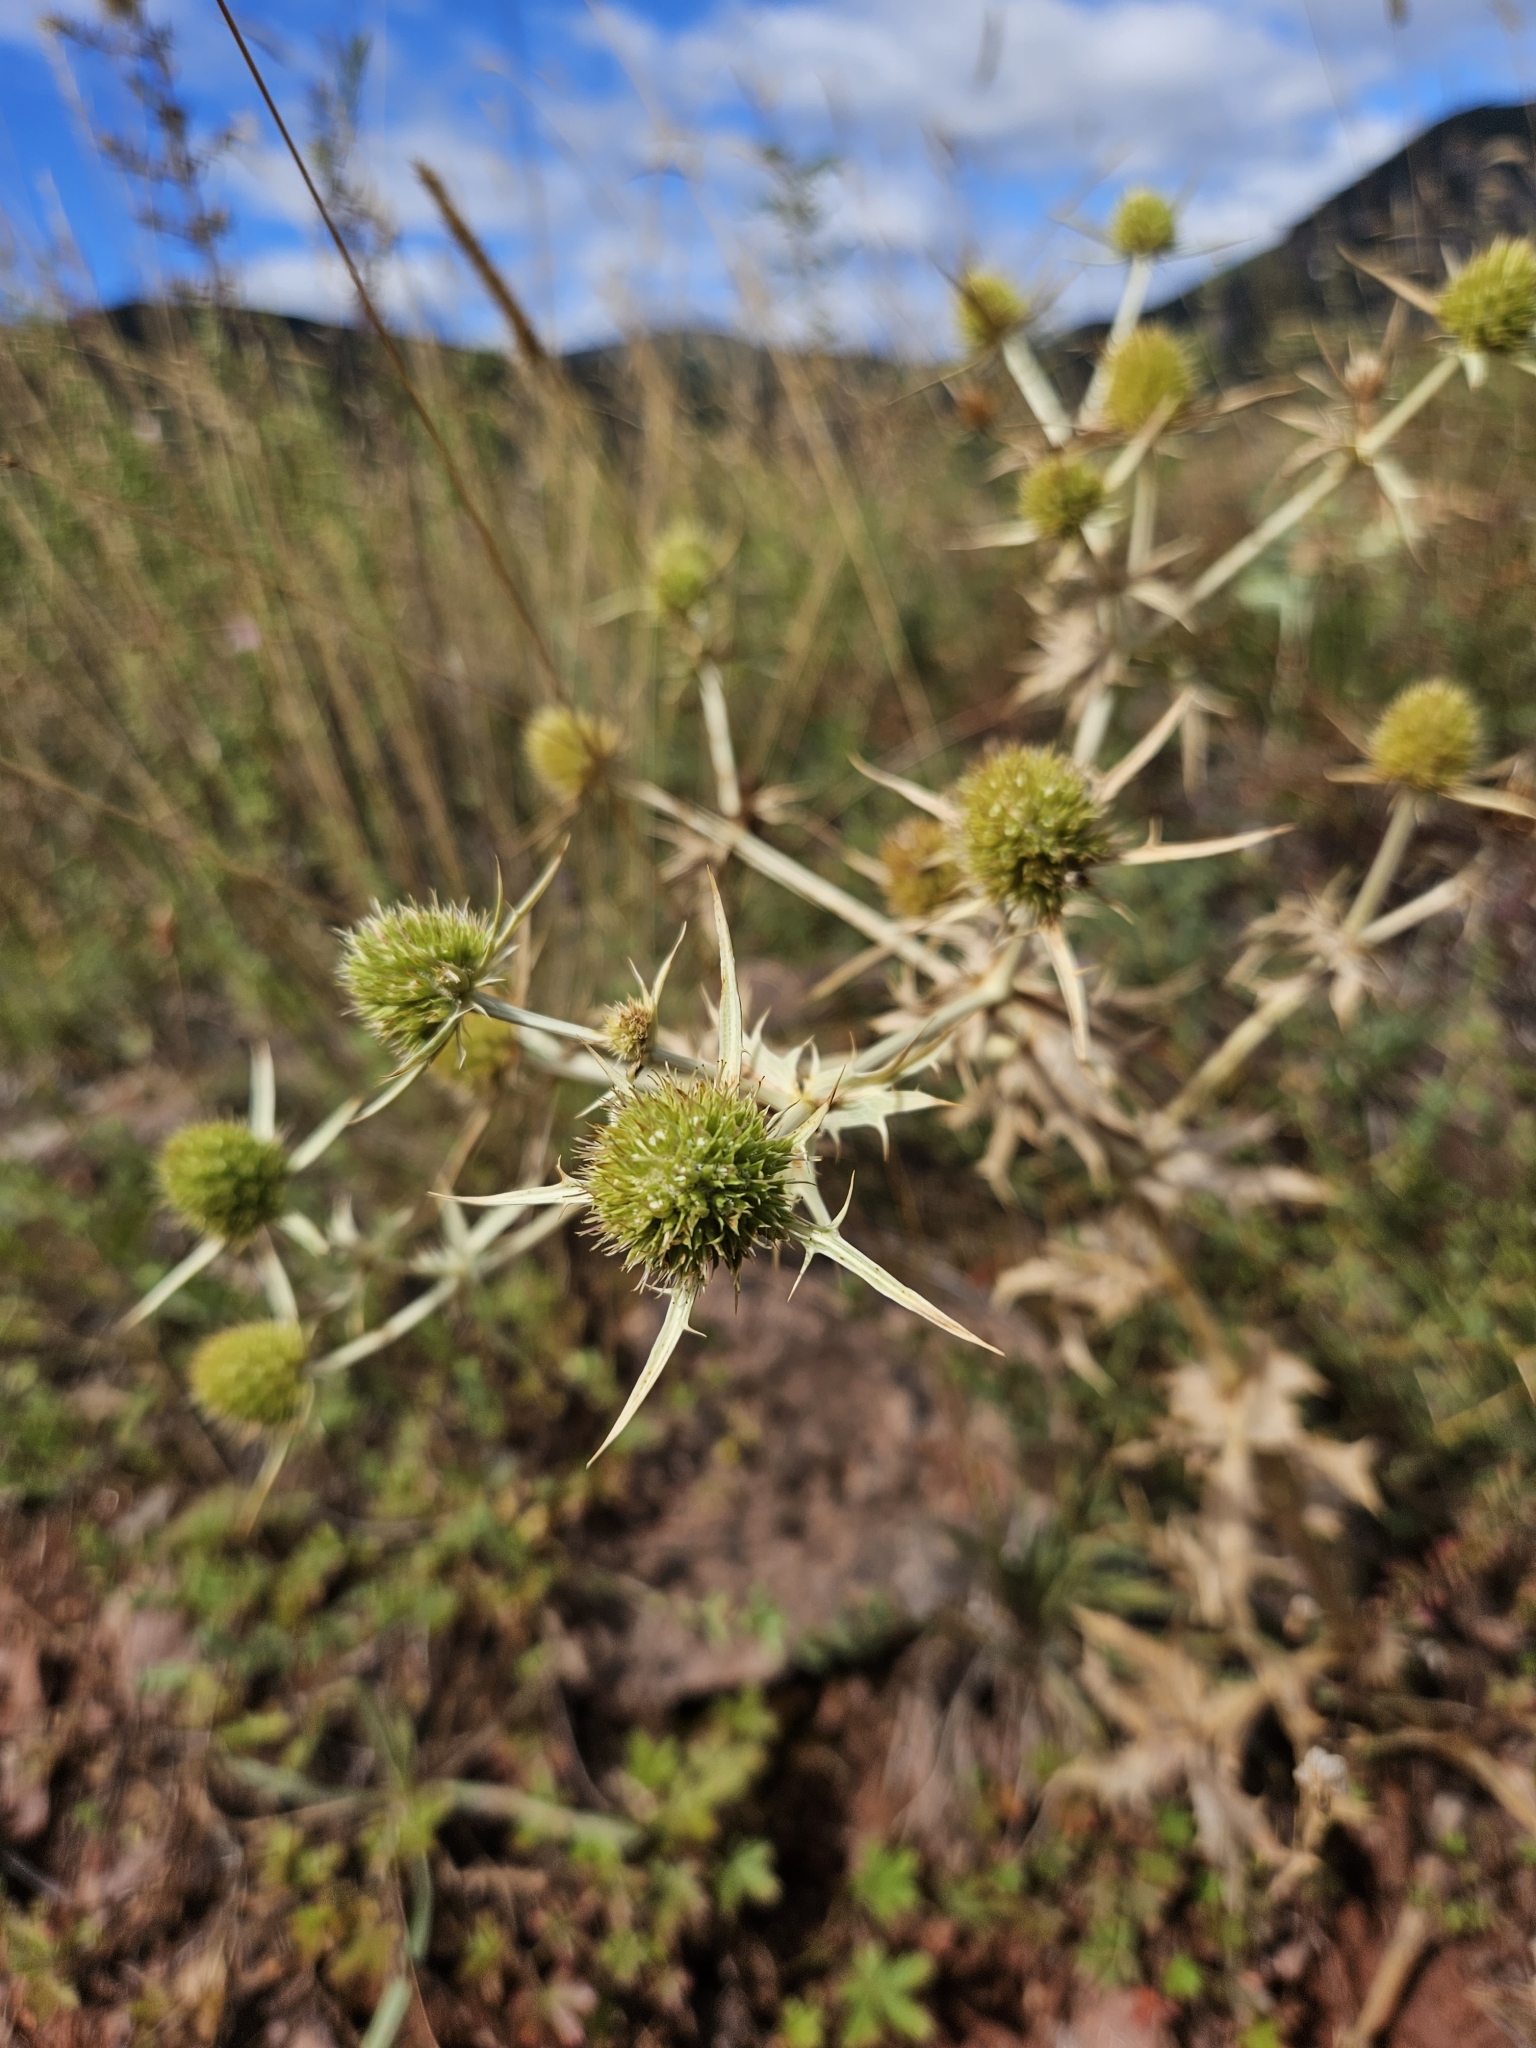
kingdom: Plantae
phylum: Tracheophyta
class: Magnoliopsida
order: Apiales
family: Apiaceae
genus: Eryngium
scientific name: Eryngium campestre
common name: Field eryngo
